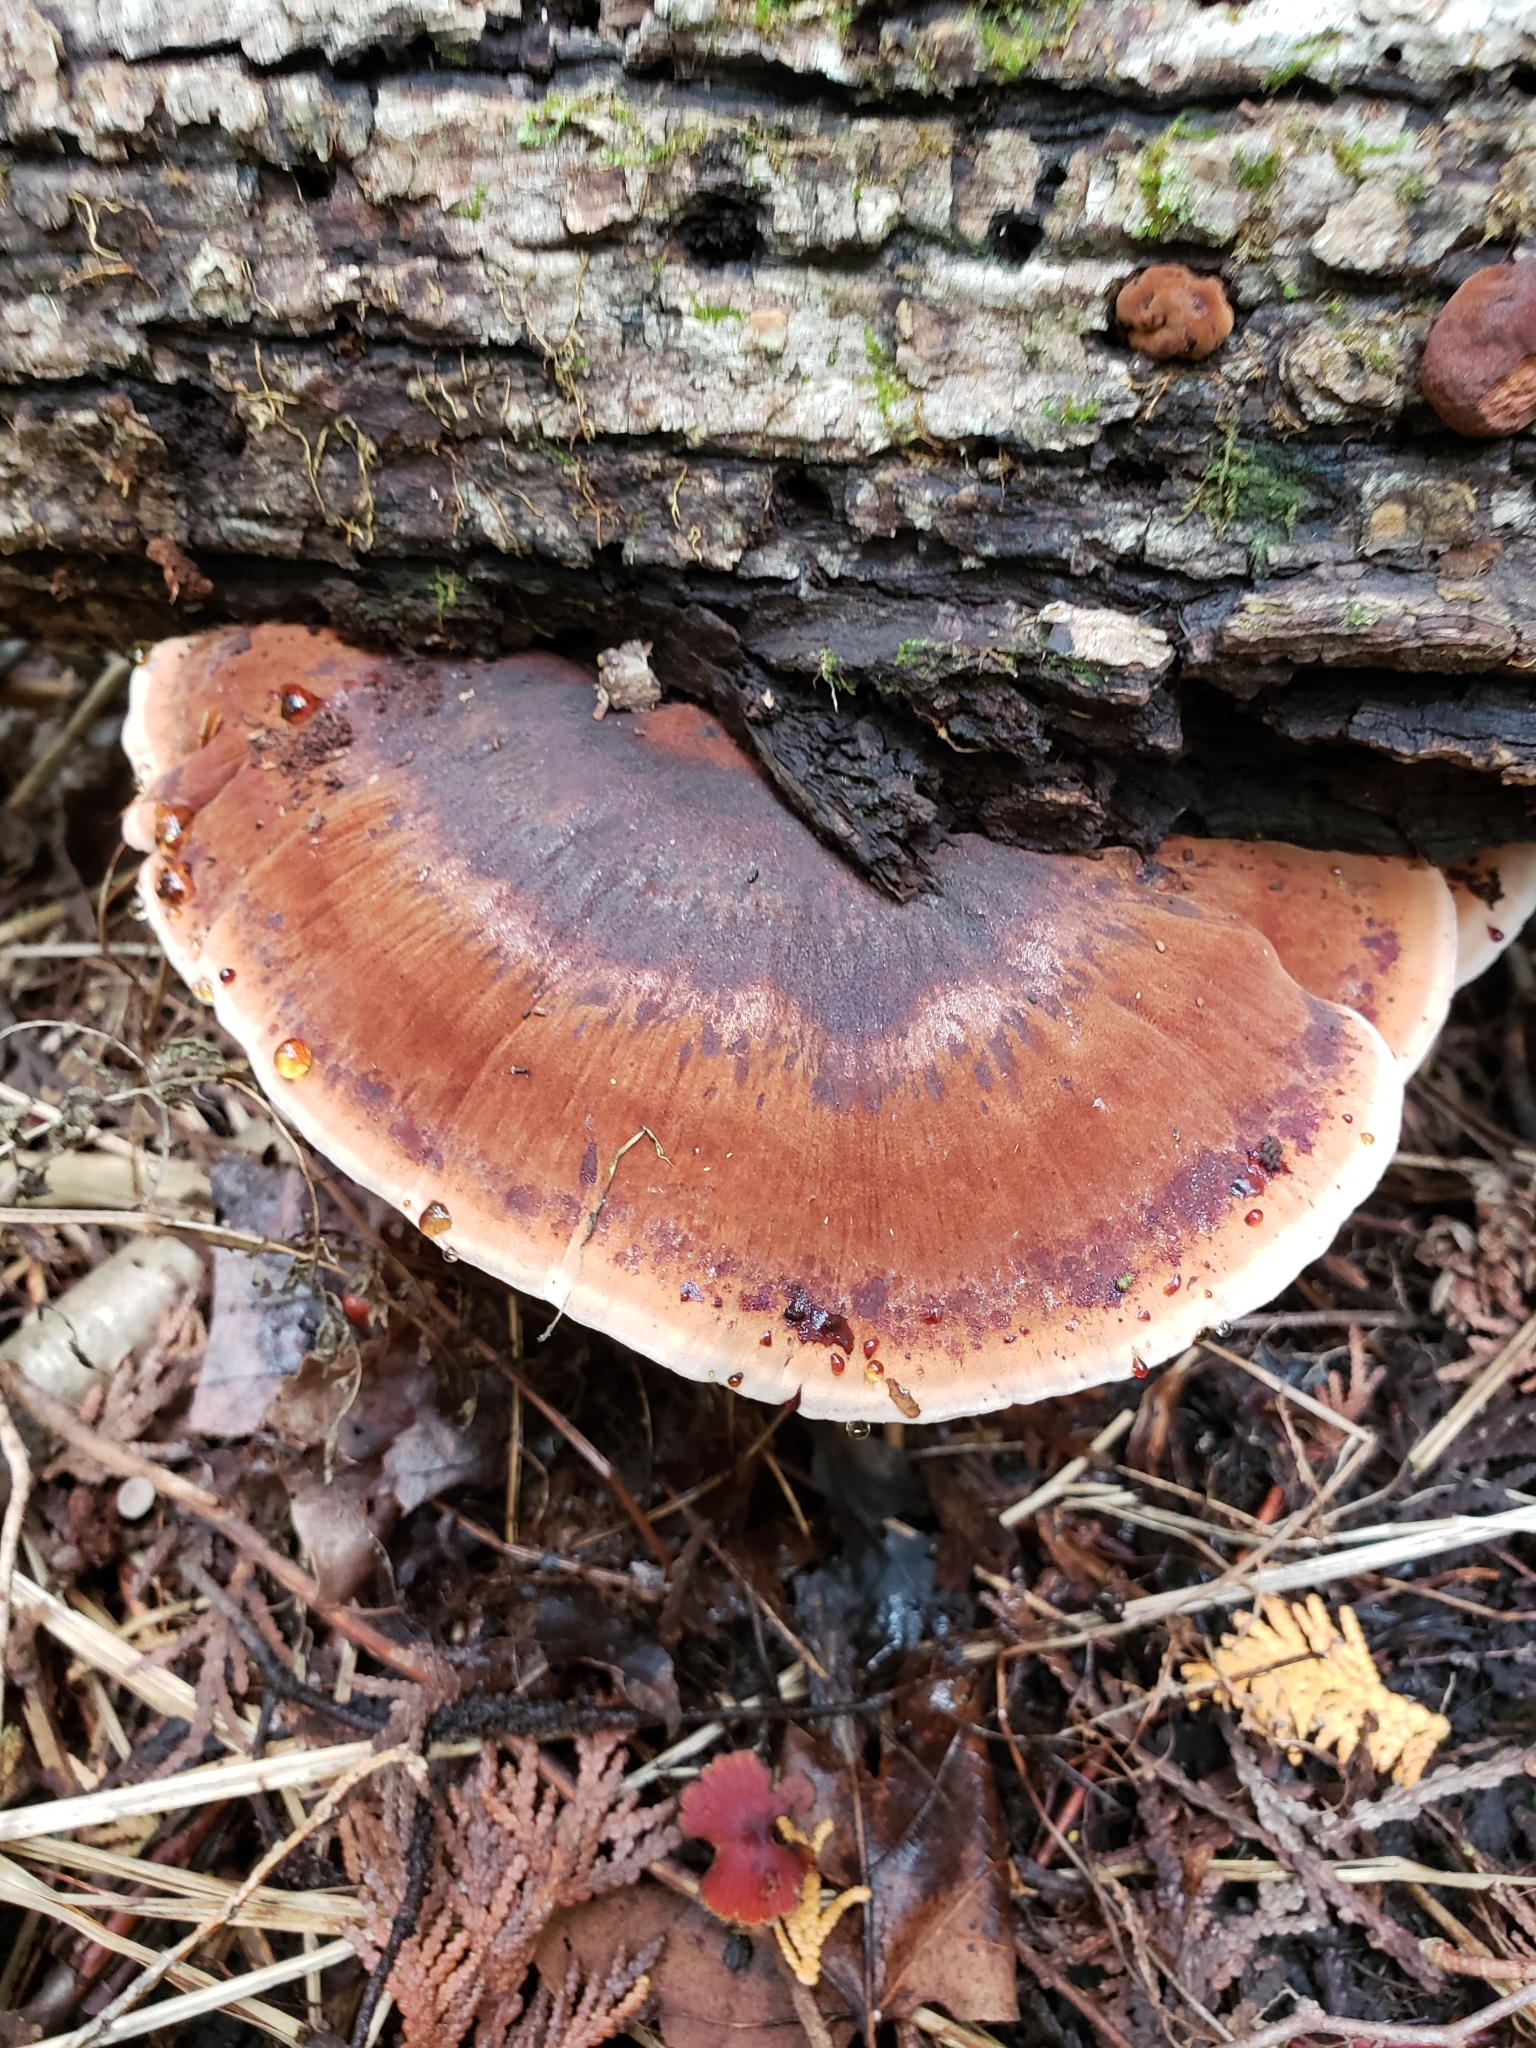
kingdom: Fungi
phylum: Basidiomycota
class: Agaricomycetes
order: Polyporales
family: Ischnodermataceae
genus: Ischnoderma
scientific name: Ischnoderma resinosum
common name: Resinous polypore
